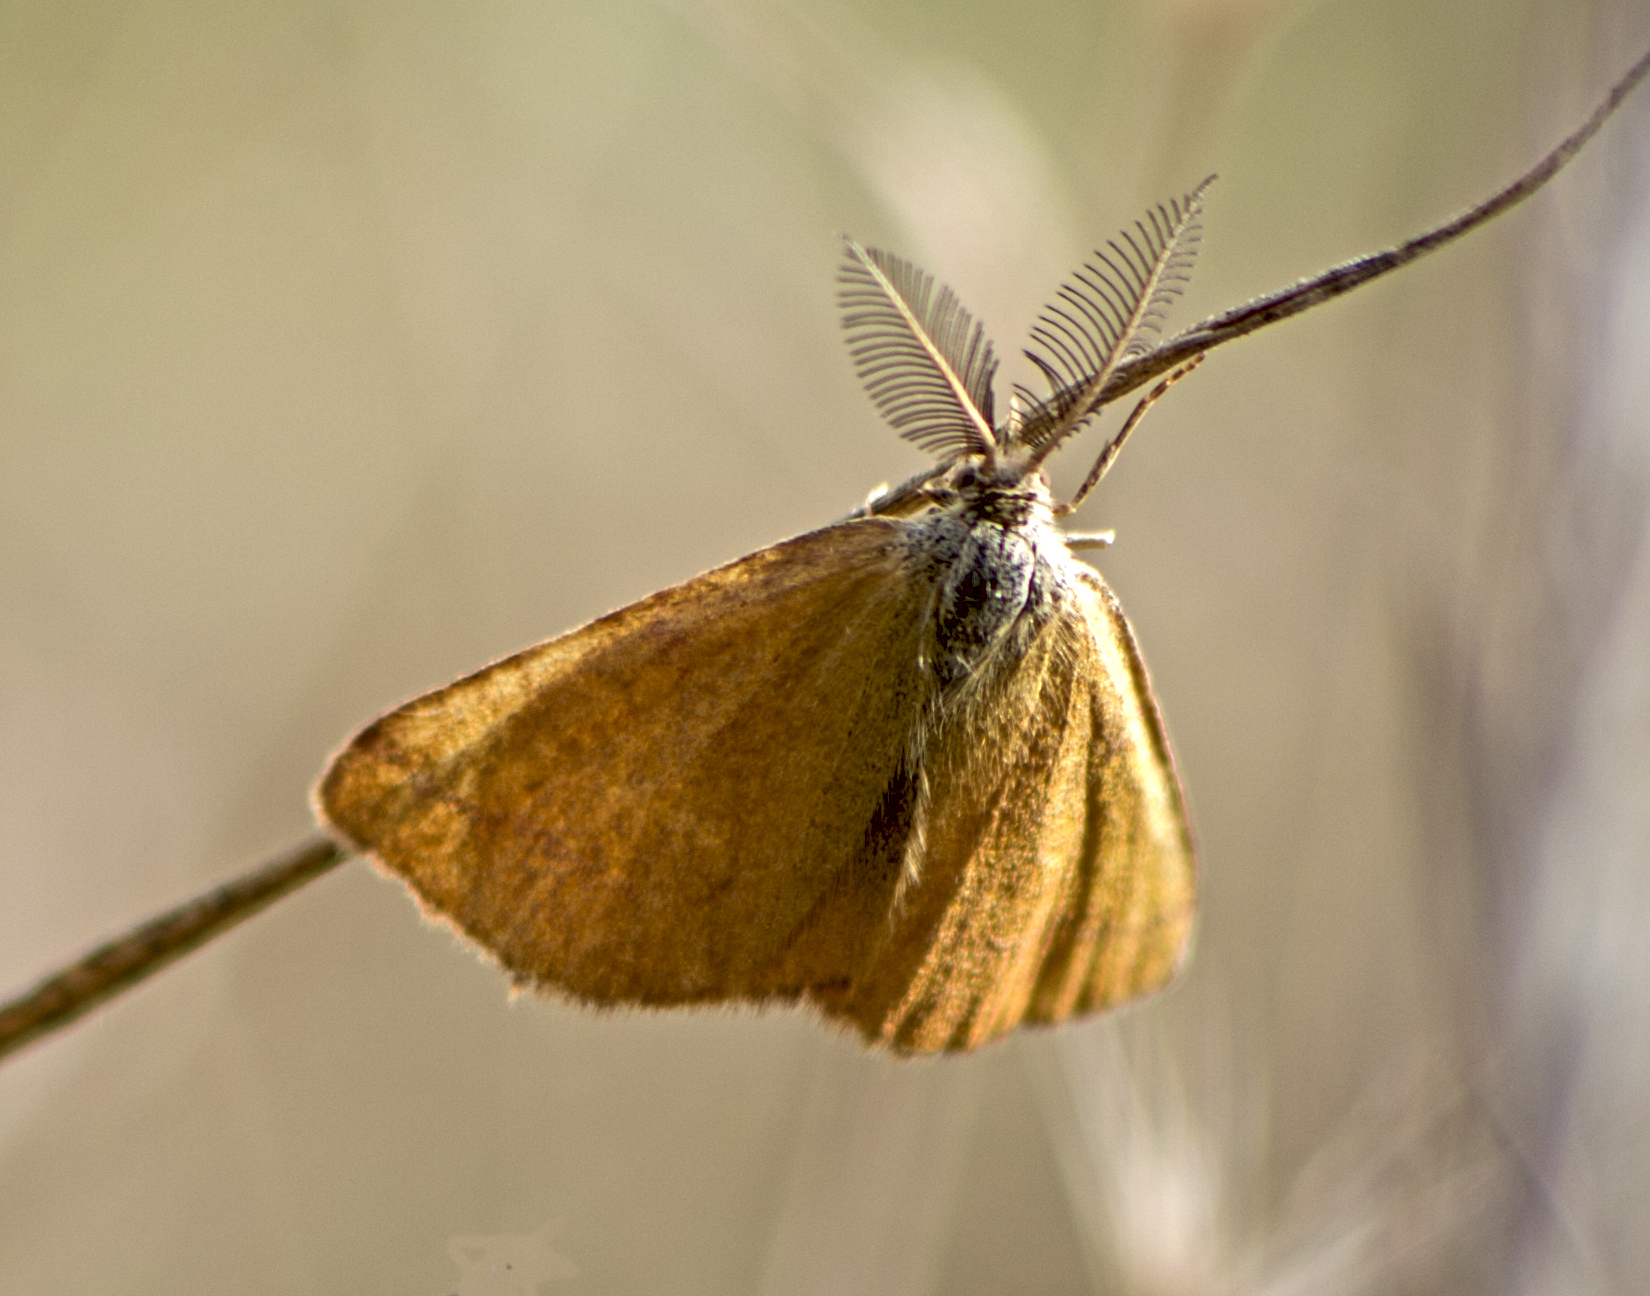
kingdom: Animalia
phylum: Arthropoda
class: Insecta
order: Lepidoptera
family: Geometridae
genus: Lythria
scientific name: Lythria purpuraria
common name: Purple-barred yellow
